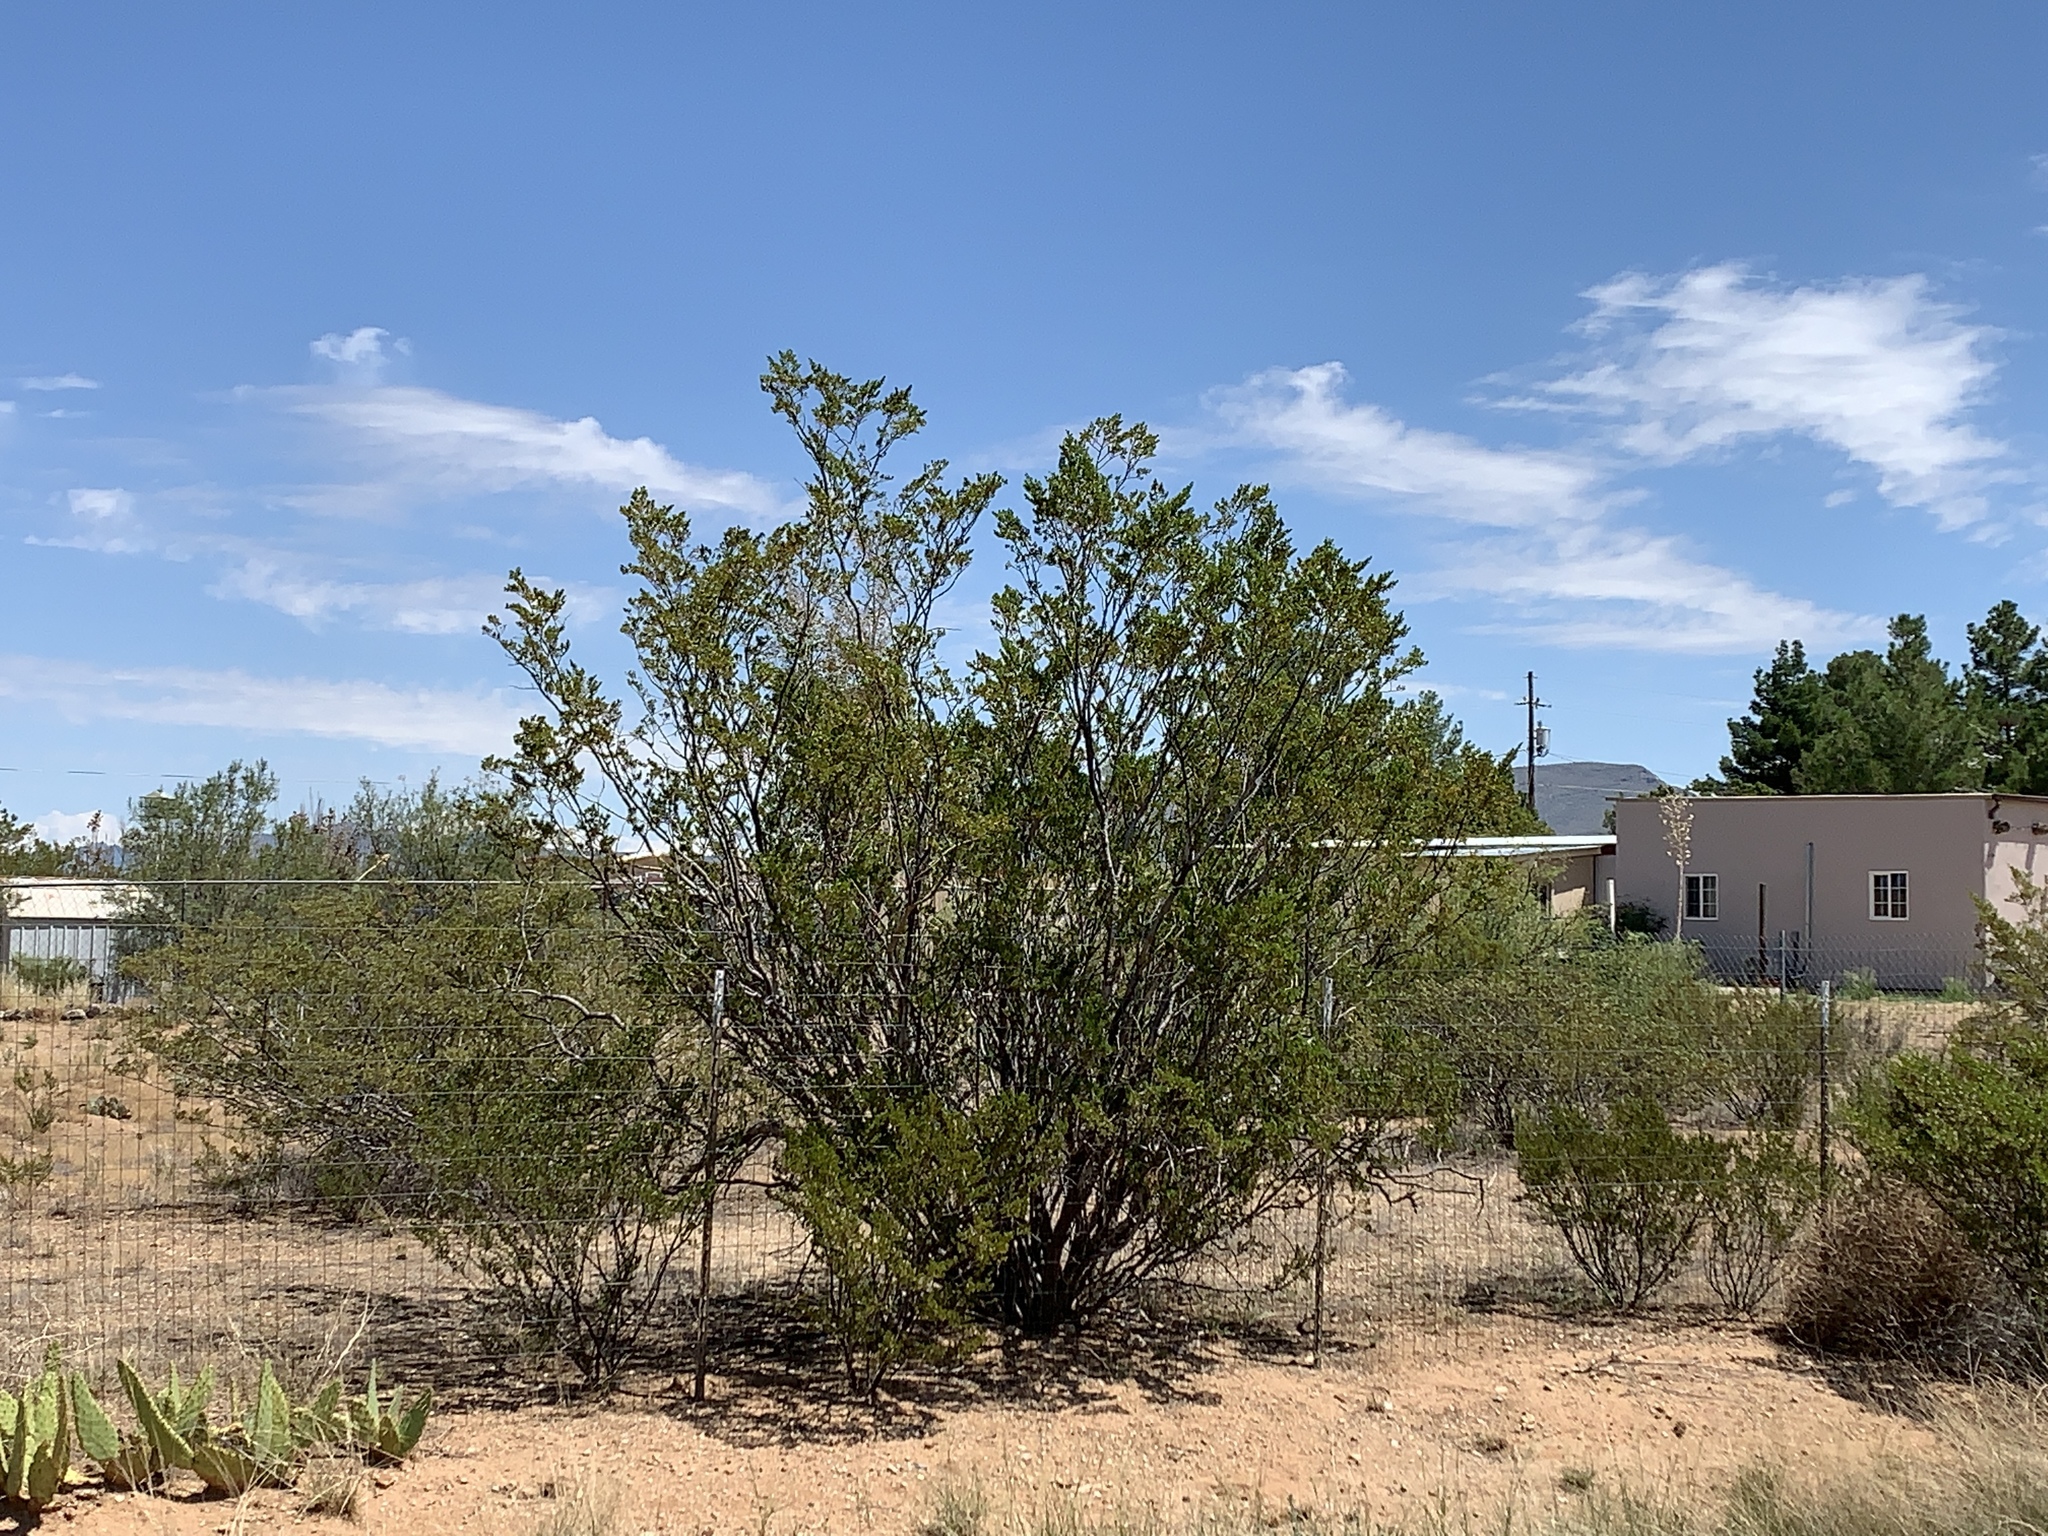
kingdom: Plantae
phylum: Tracheophyta
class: Magnoliopsida
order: Zygophyllales
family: Zygophyllaceae
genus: Larrea
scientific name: Larrea tridentata
